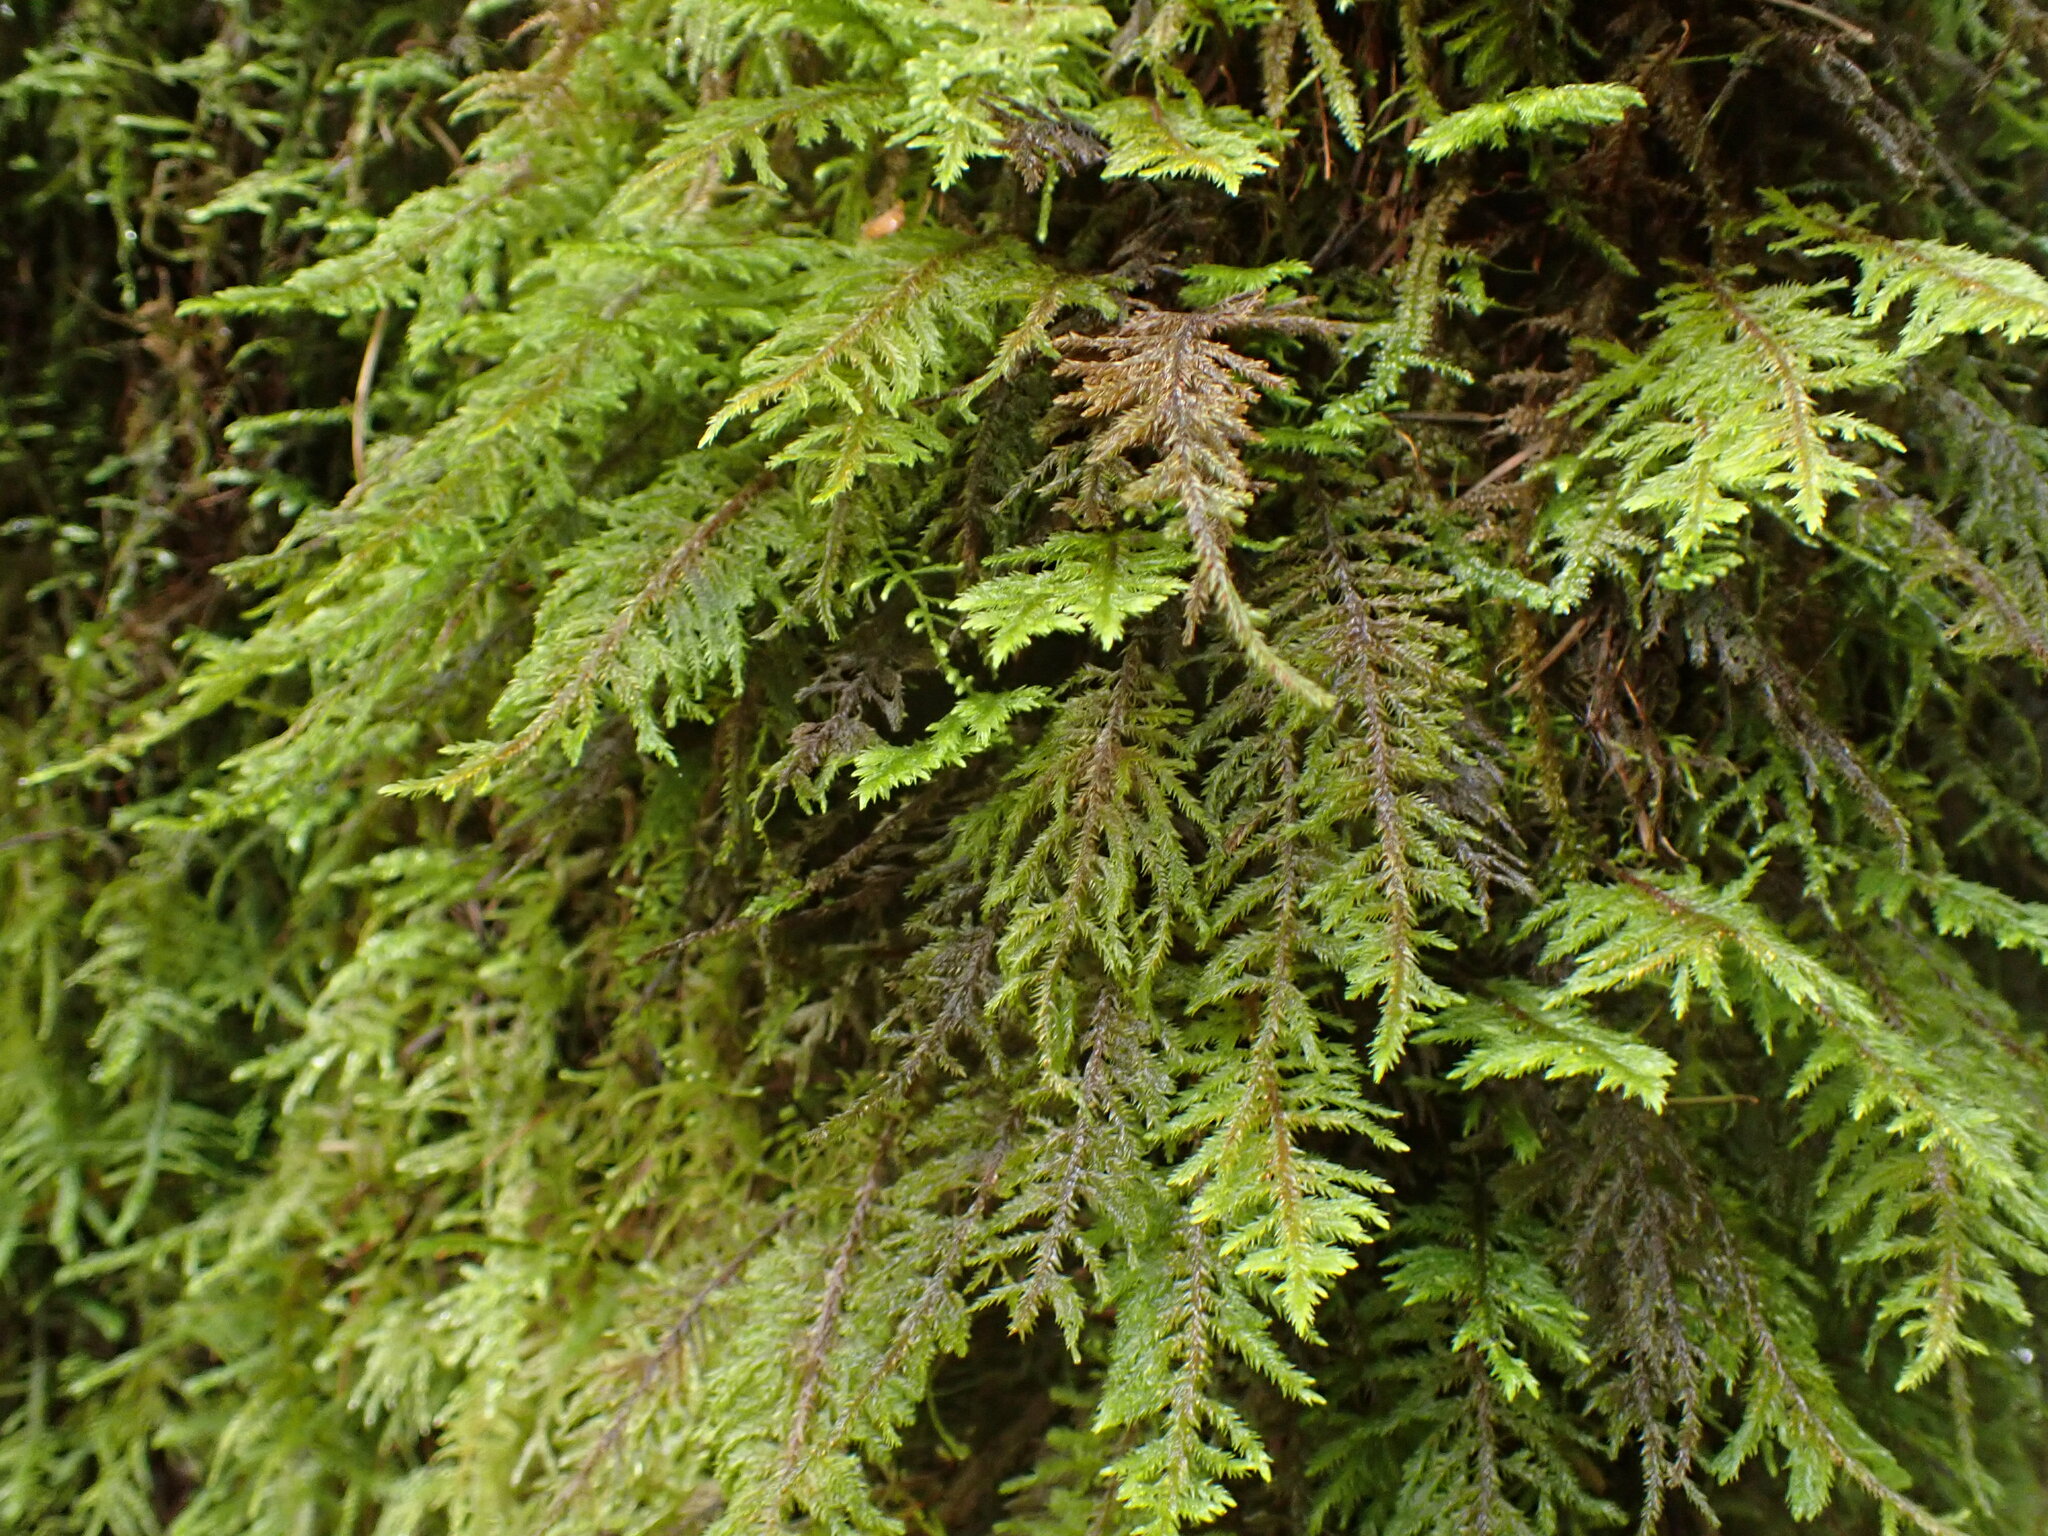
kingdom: Plantae
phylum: Bryophyta
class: Bryopsida
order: Hypnales
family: Cryphaeaceae
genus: Dendroalsia
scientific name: Dendroalsia abietina
